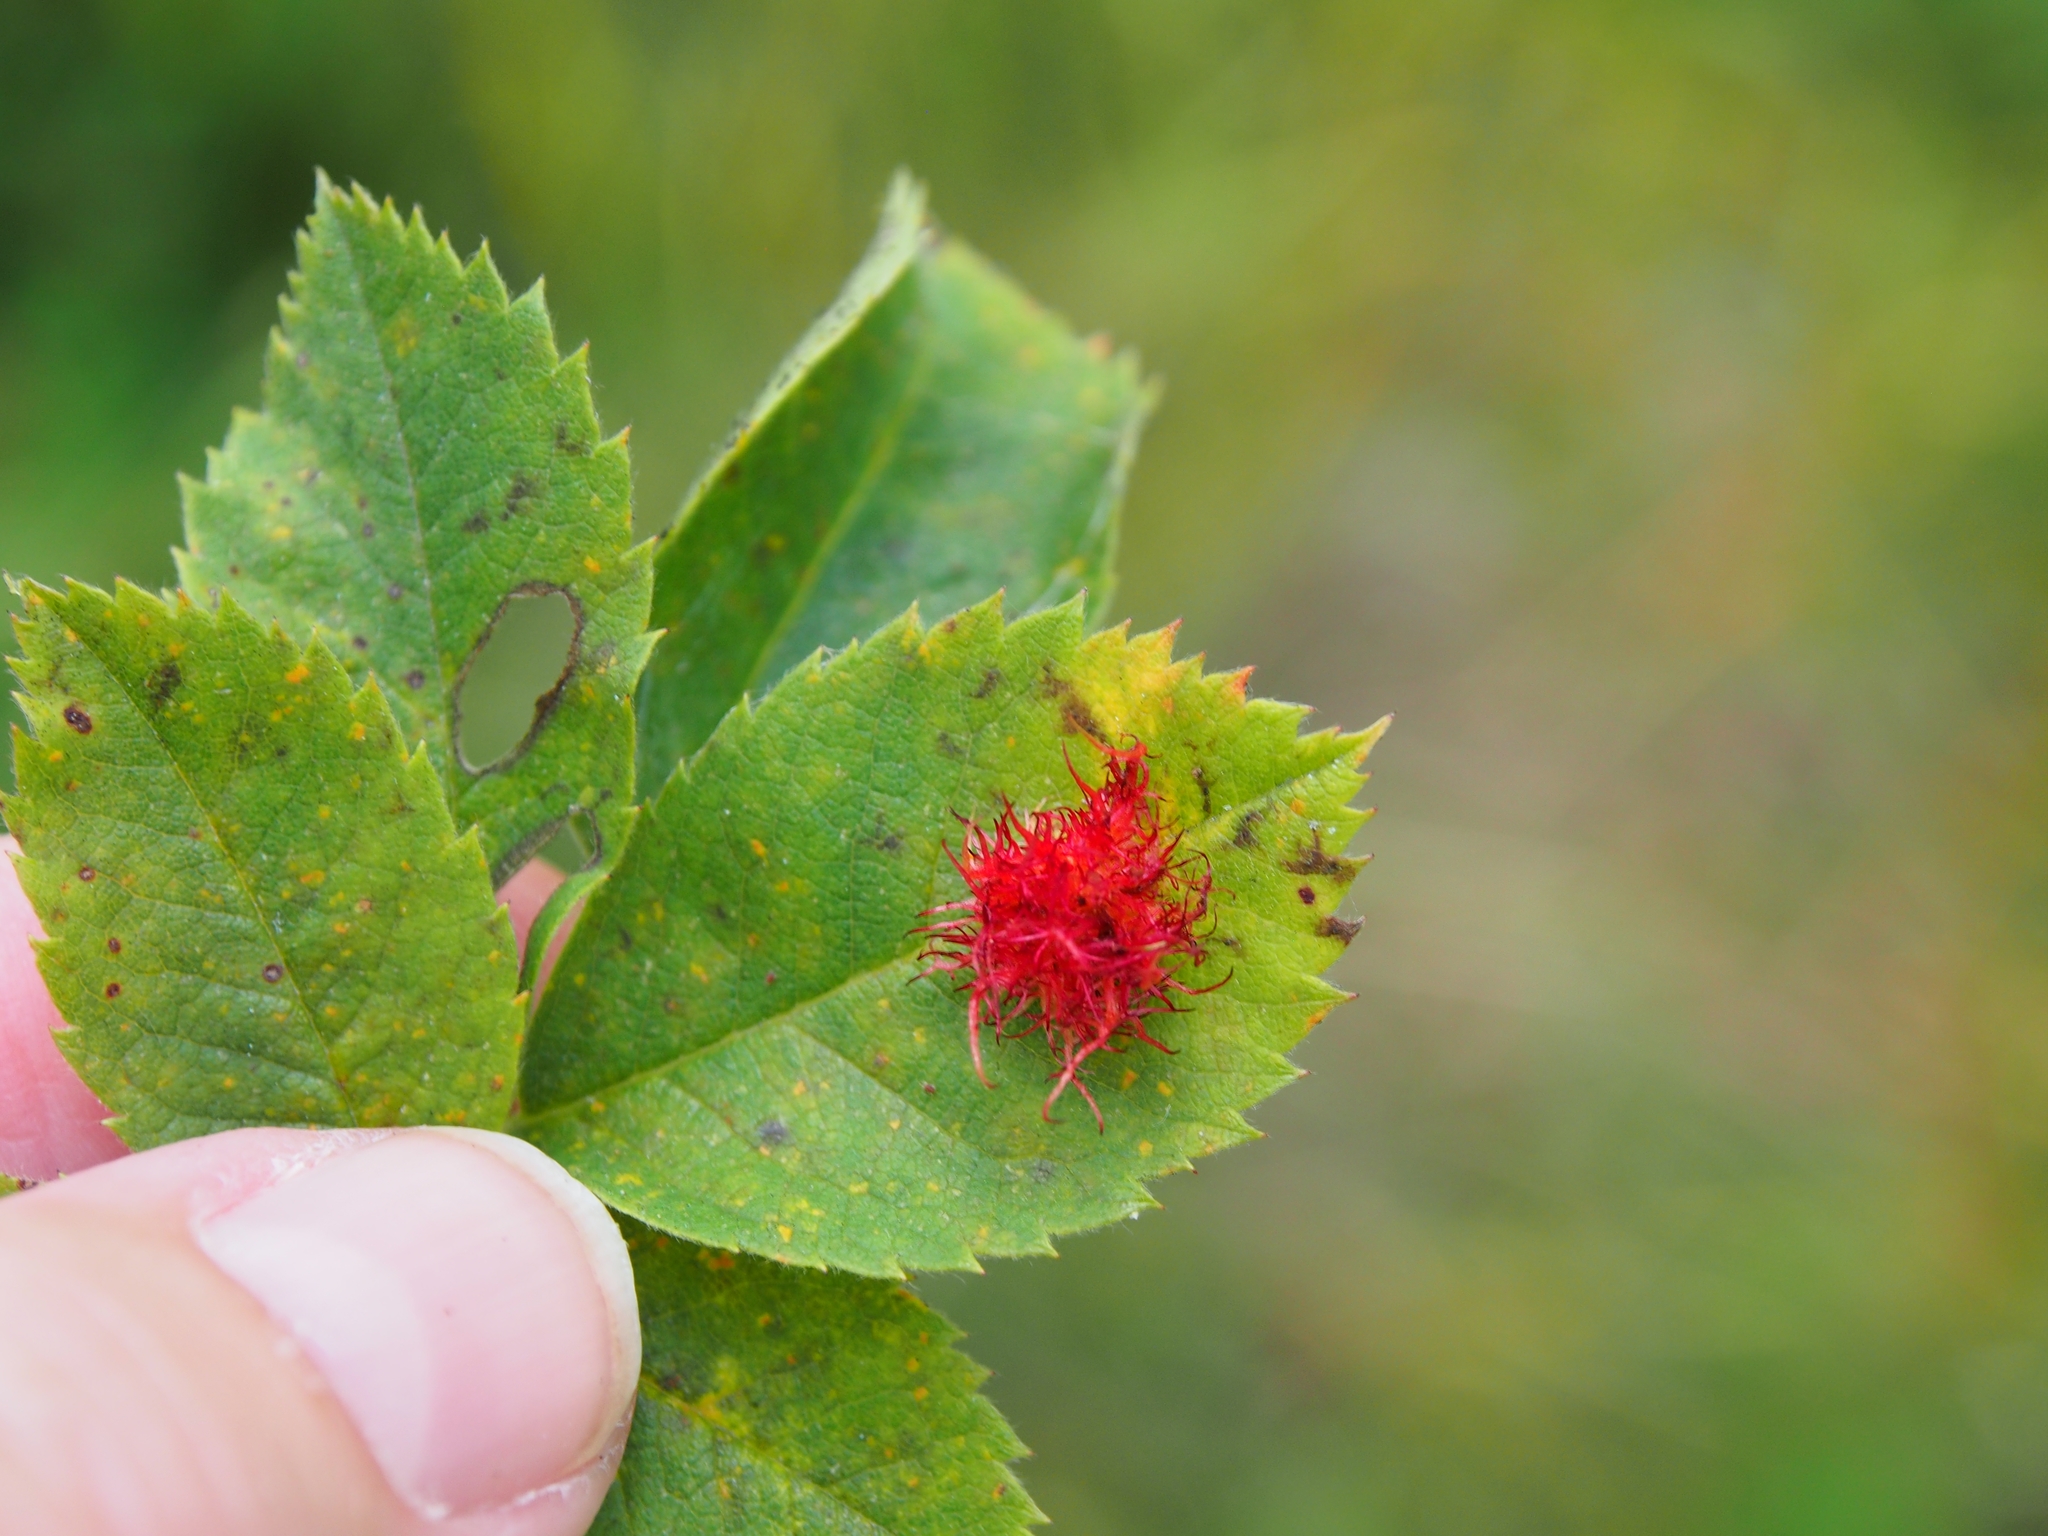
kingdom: Animalia
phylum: Arthropoda
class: Insecta
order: Hymenoptera
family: Cynipidae
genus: Diplolepis
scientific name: Diplolepis rosae
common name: Bedeguar gall
